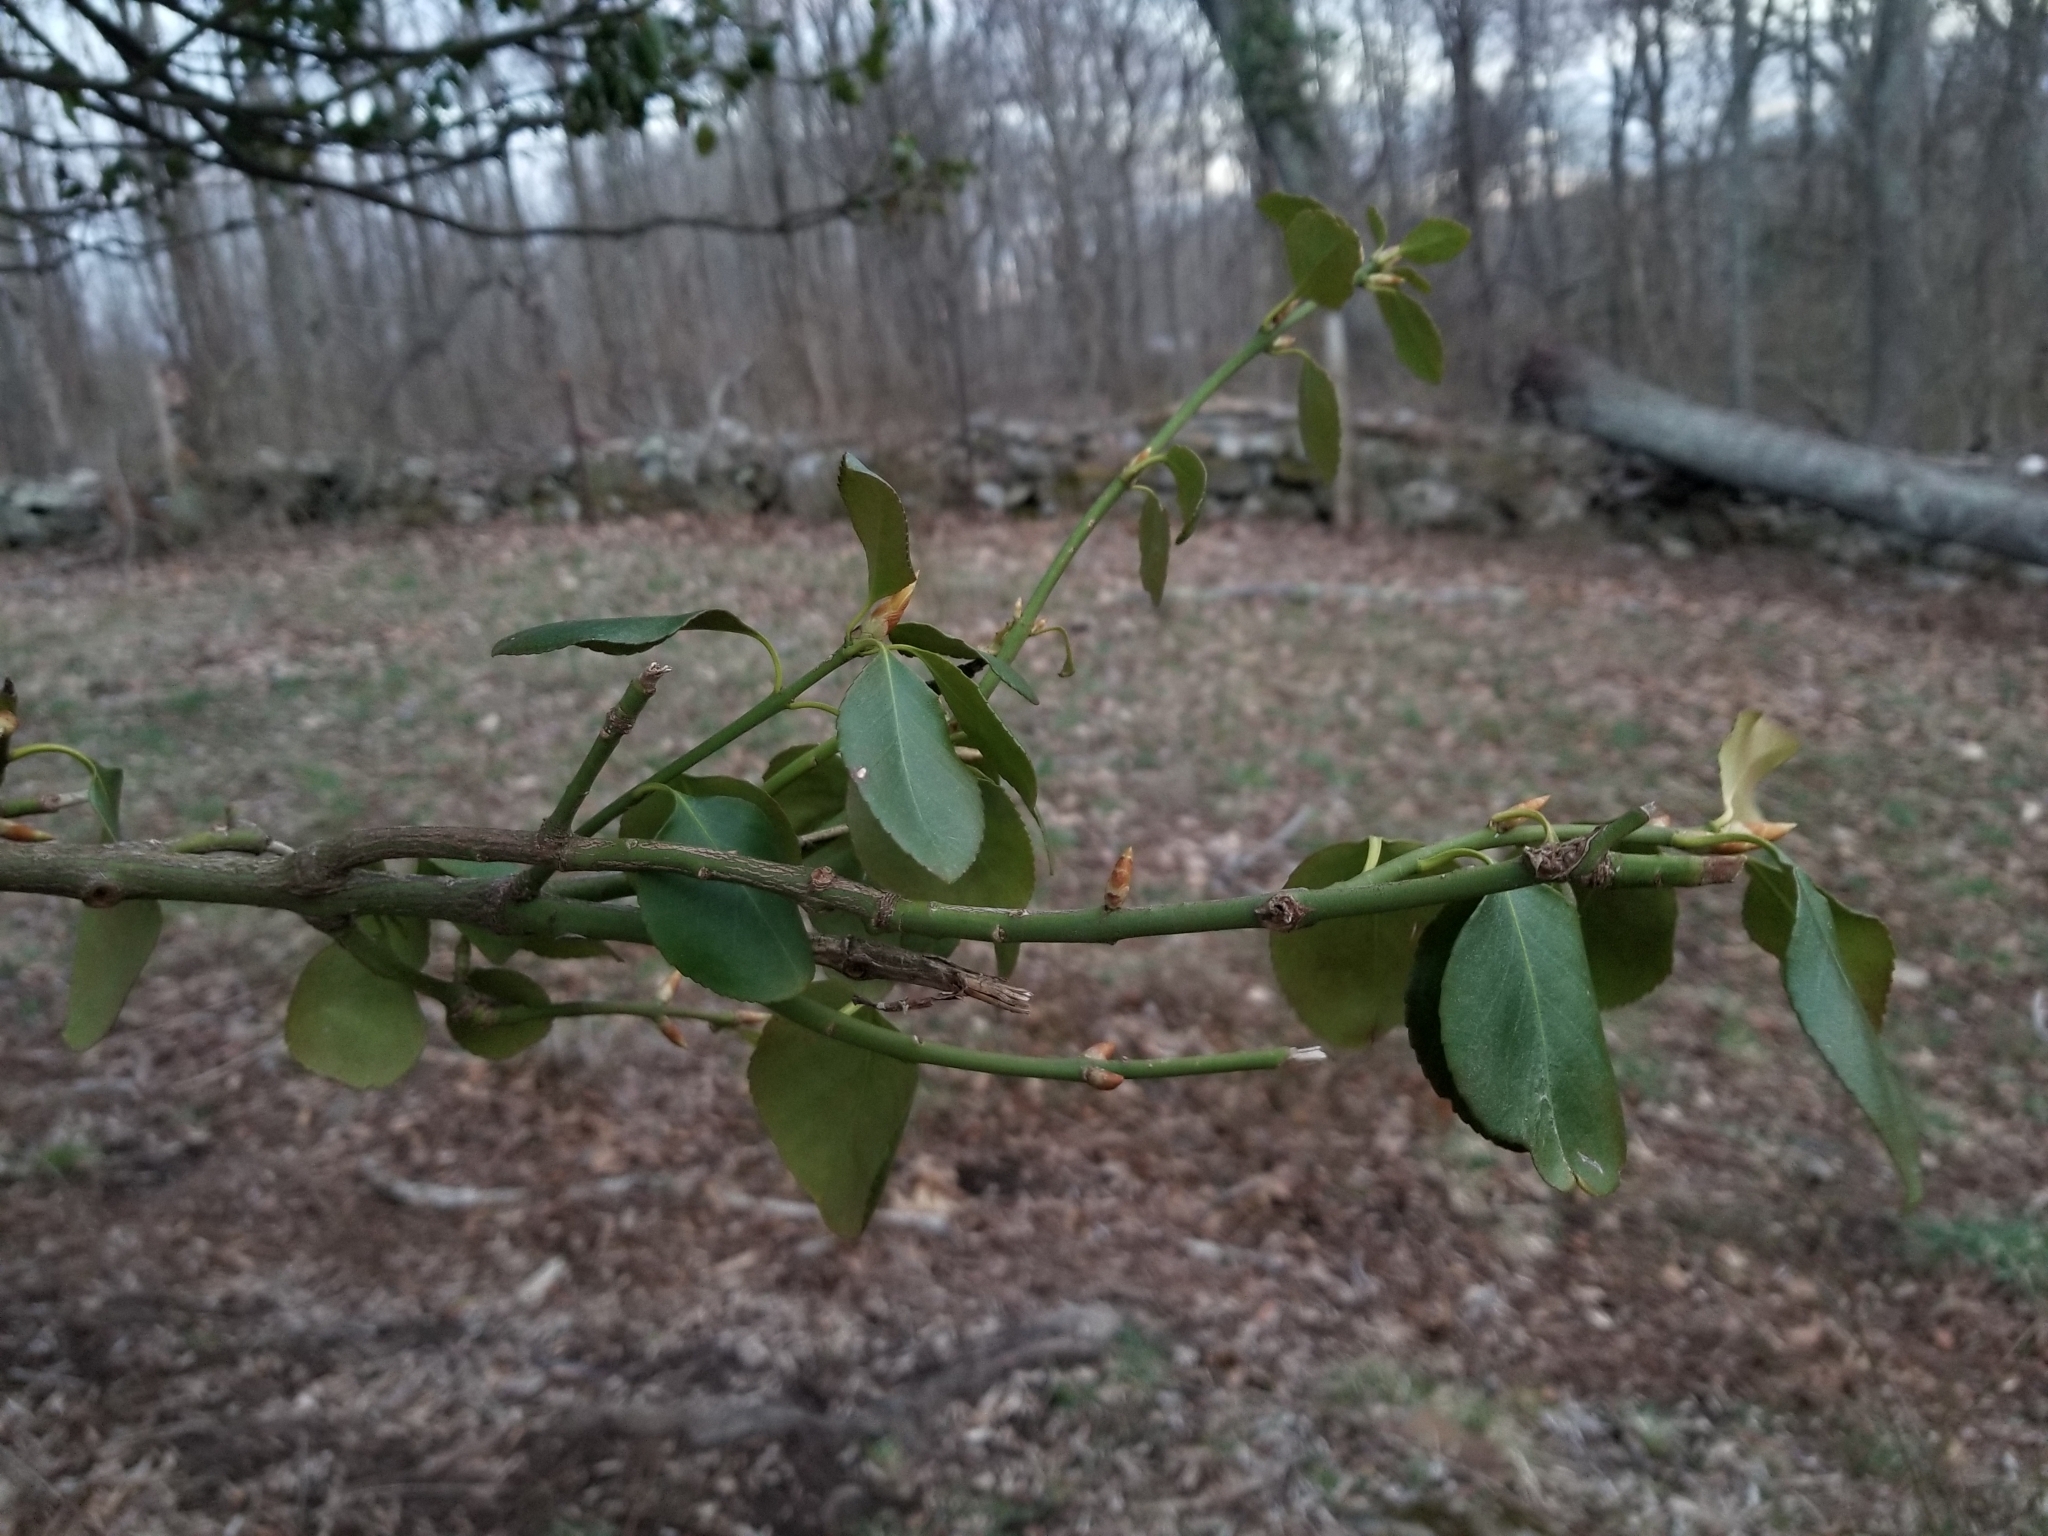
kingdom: Plantae
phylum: Tracheophyta
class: Magnoliopsida
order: Celastrales
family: Celastraceae
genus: Euonymus
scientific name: Euonymus fortunei
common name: Climbing euonymus
